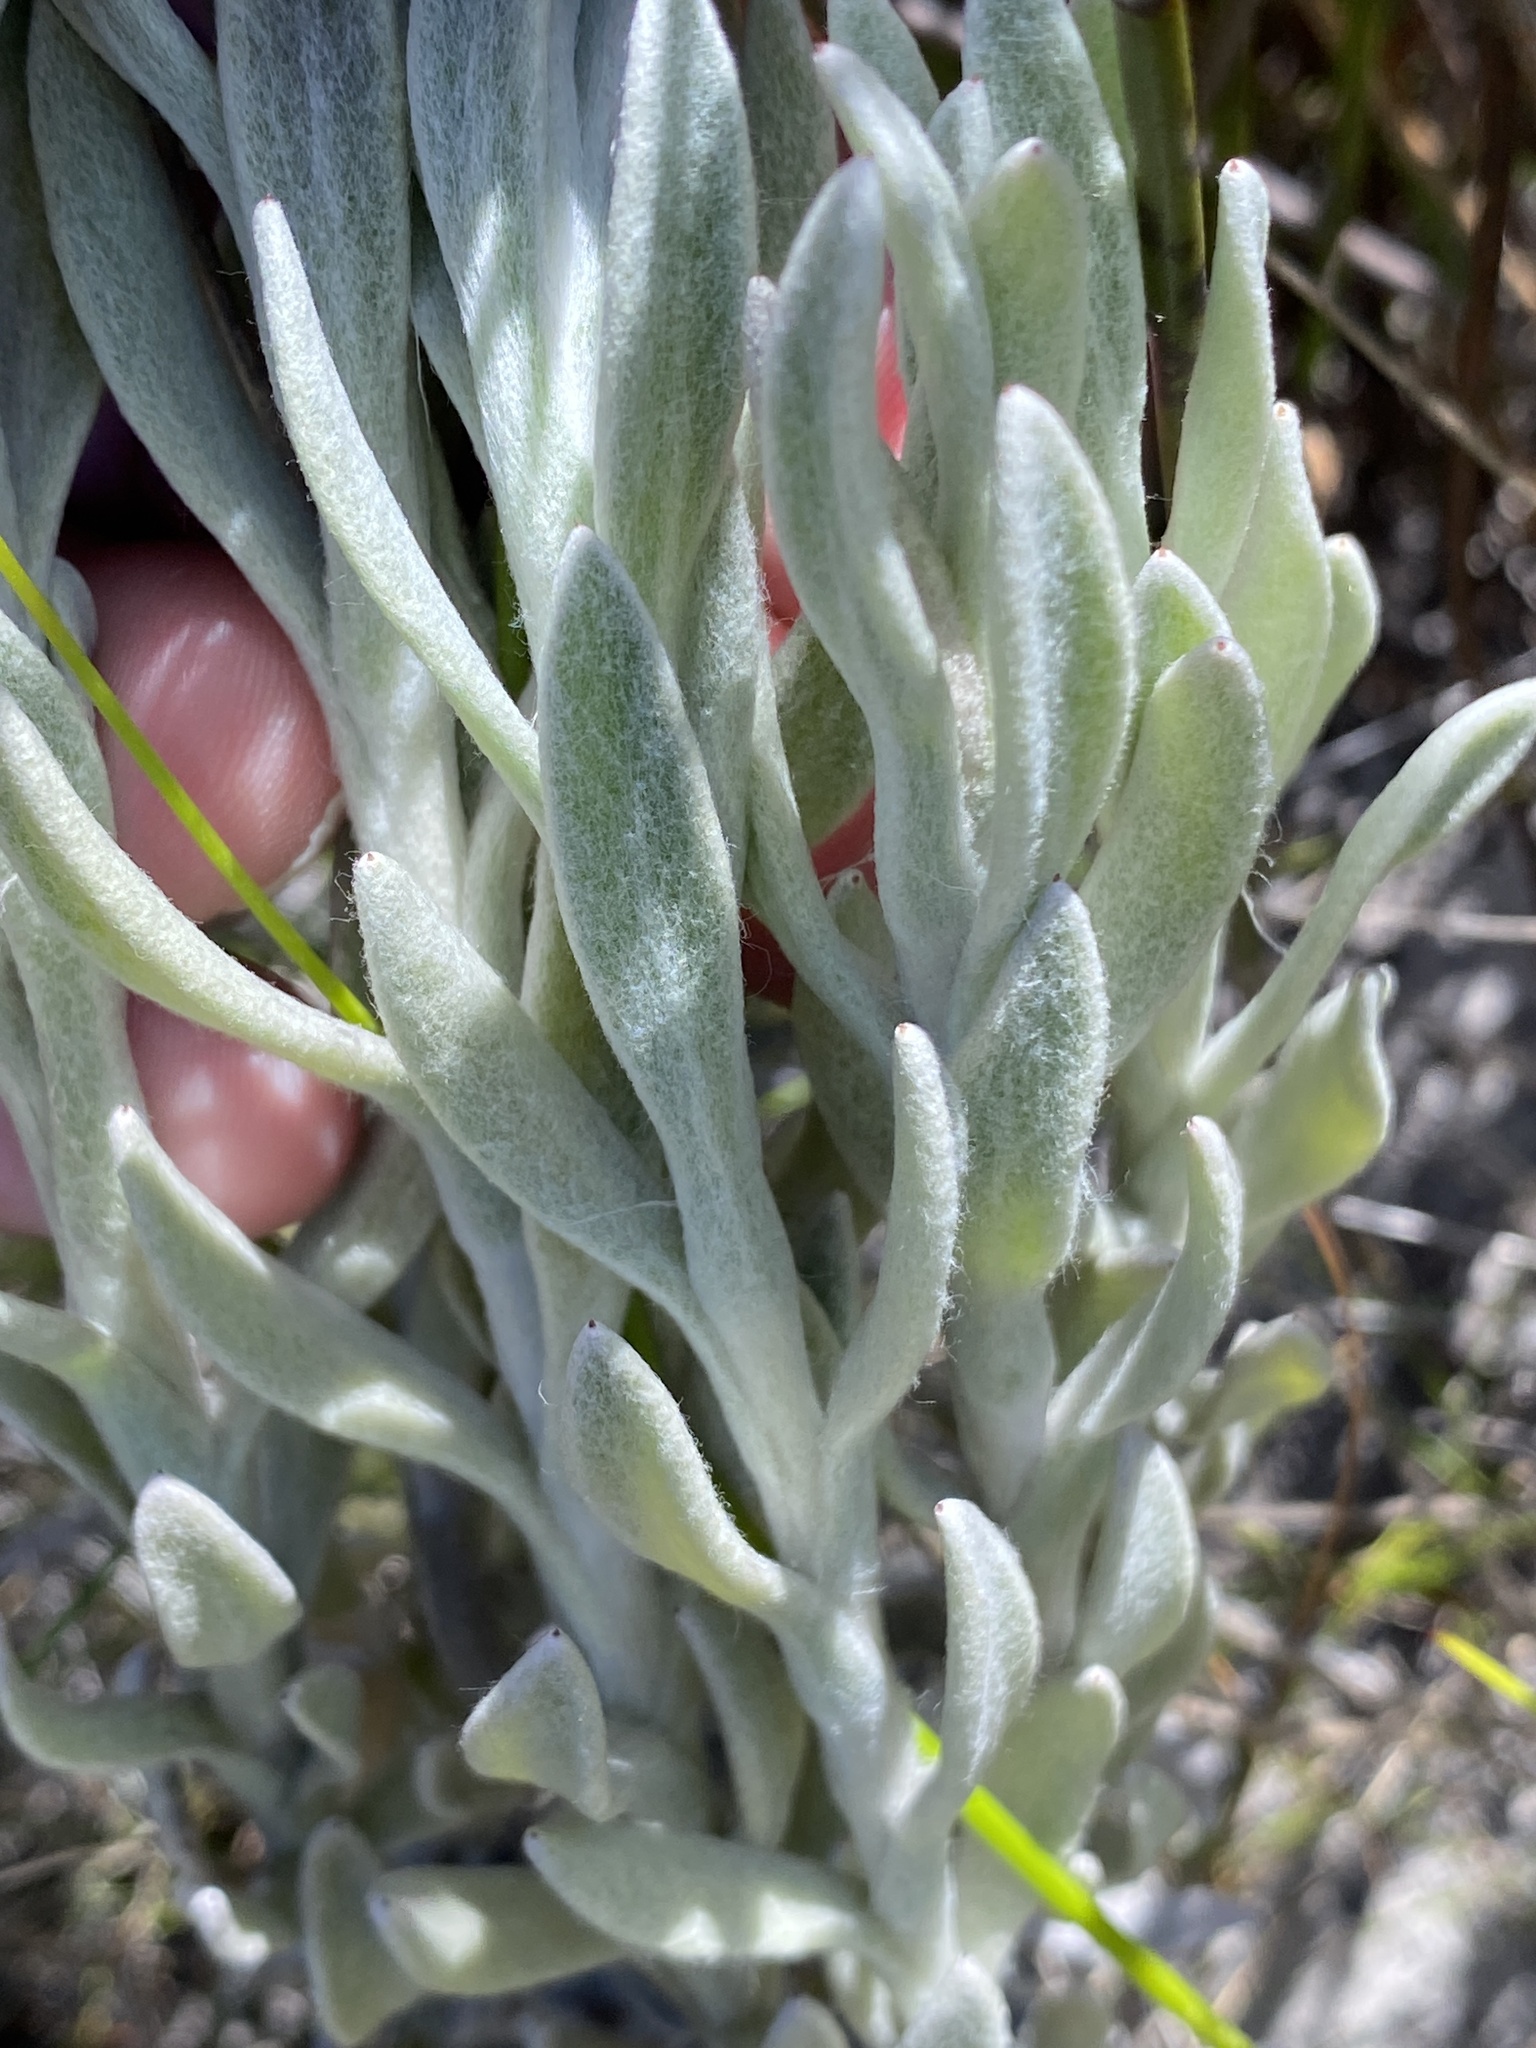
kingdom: Plantae
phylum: Tracheophyta
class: Magnoliopsida
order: Asterales
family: Asteraceae
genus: Syncarpha
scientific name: Syncarpha vestita
